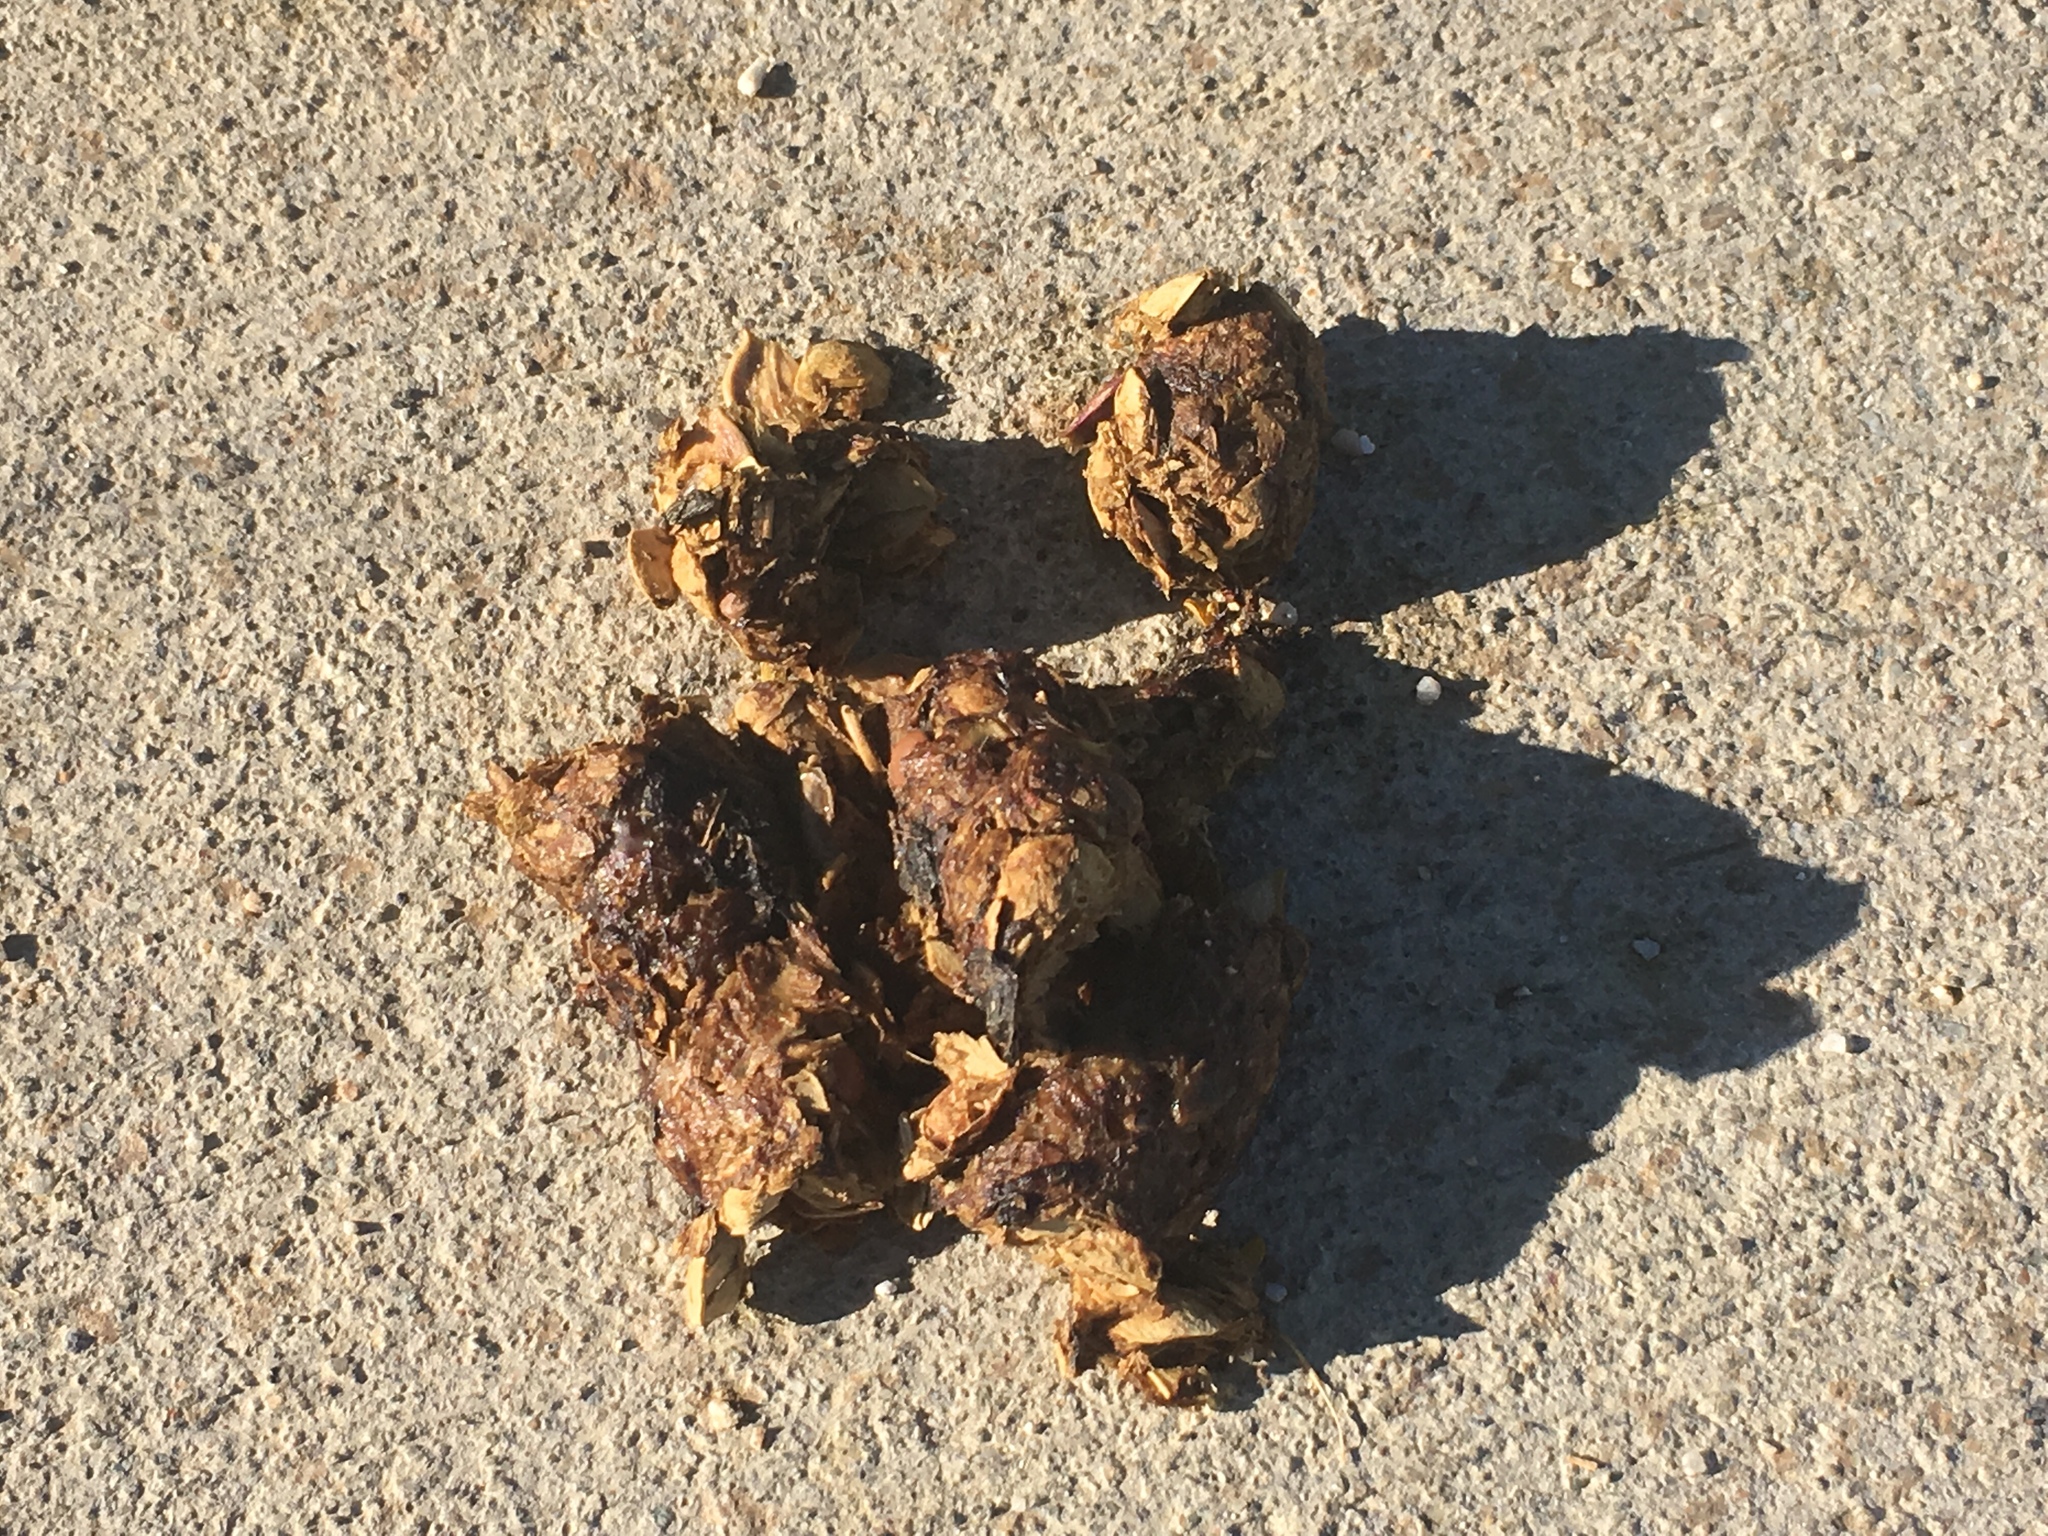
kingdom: Animalia
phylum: Chordata
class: Mammalia
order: Carnivora
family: Canidae
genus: Canis
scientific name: Canis latrans
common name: Coyote
